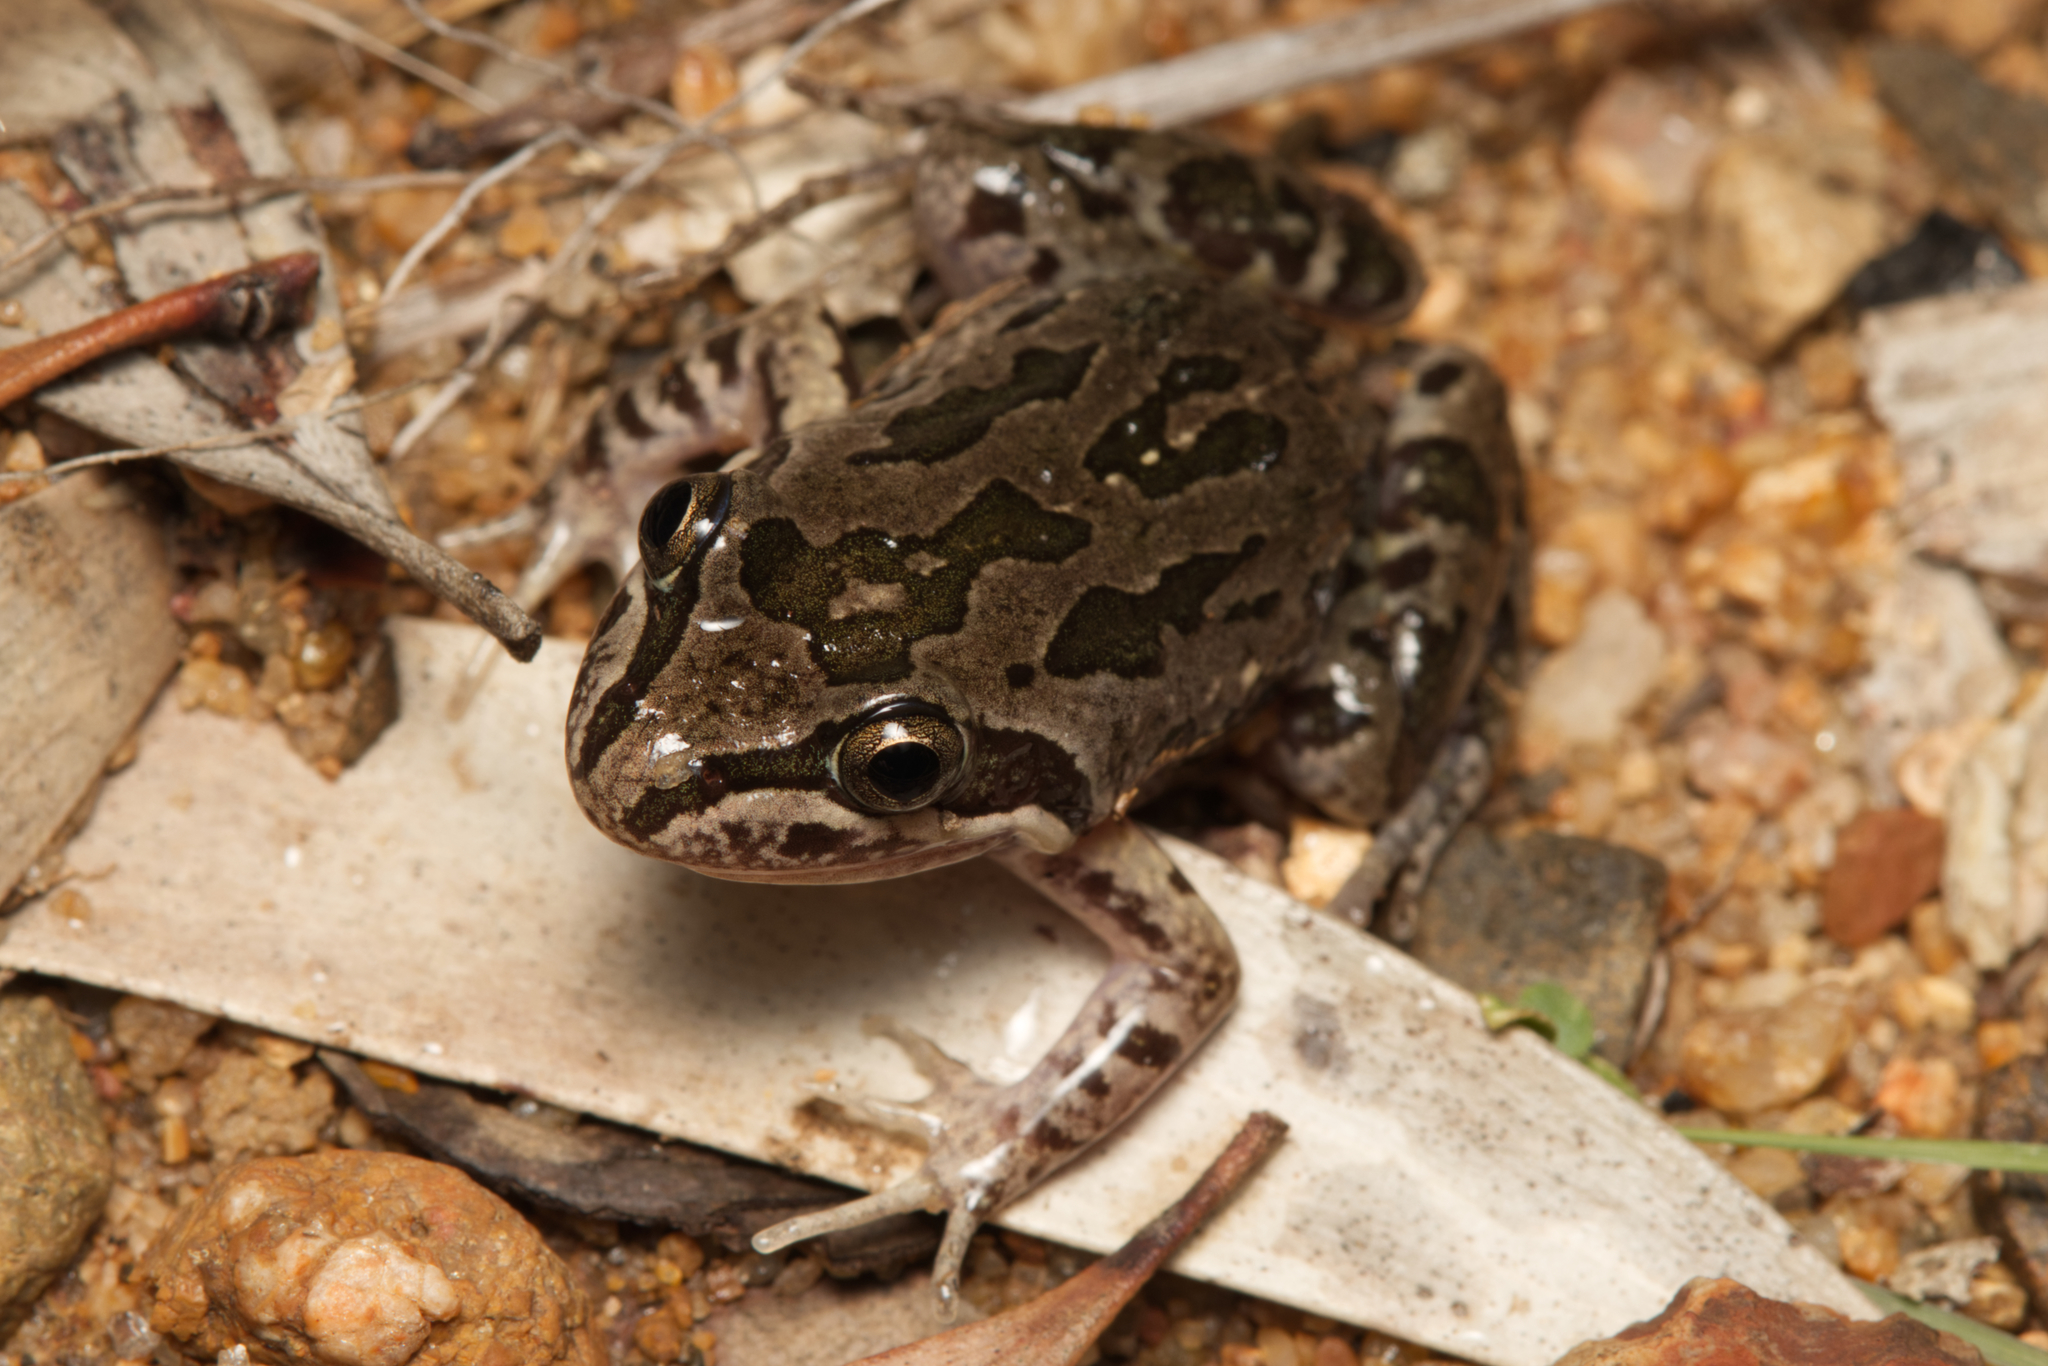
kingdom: Animalia
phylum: Chordata
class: Amphibia
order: Anura
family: Limnodynastidae
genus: Limnodynastes
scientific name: Limnodynastes tasmaniensis
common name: Spotted marsh frog
